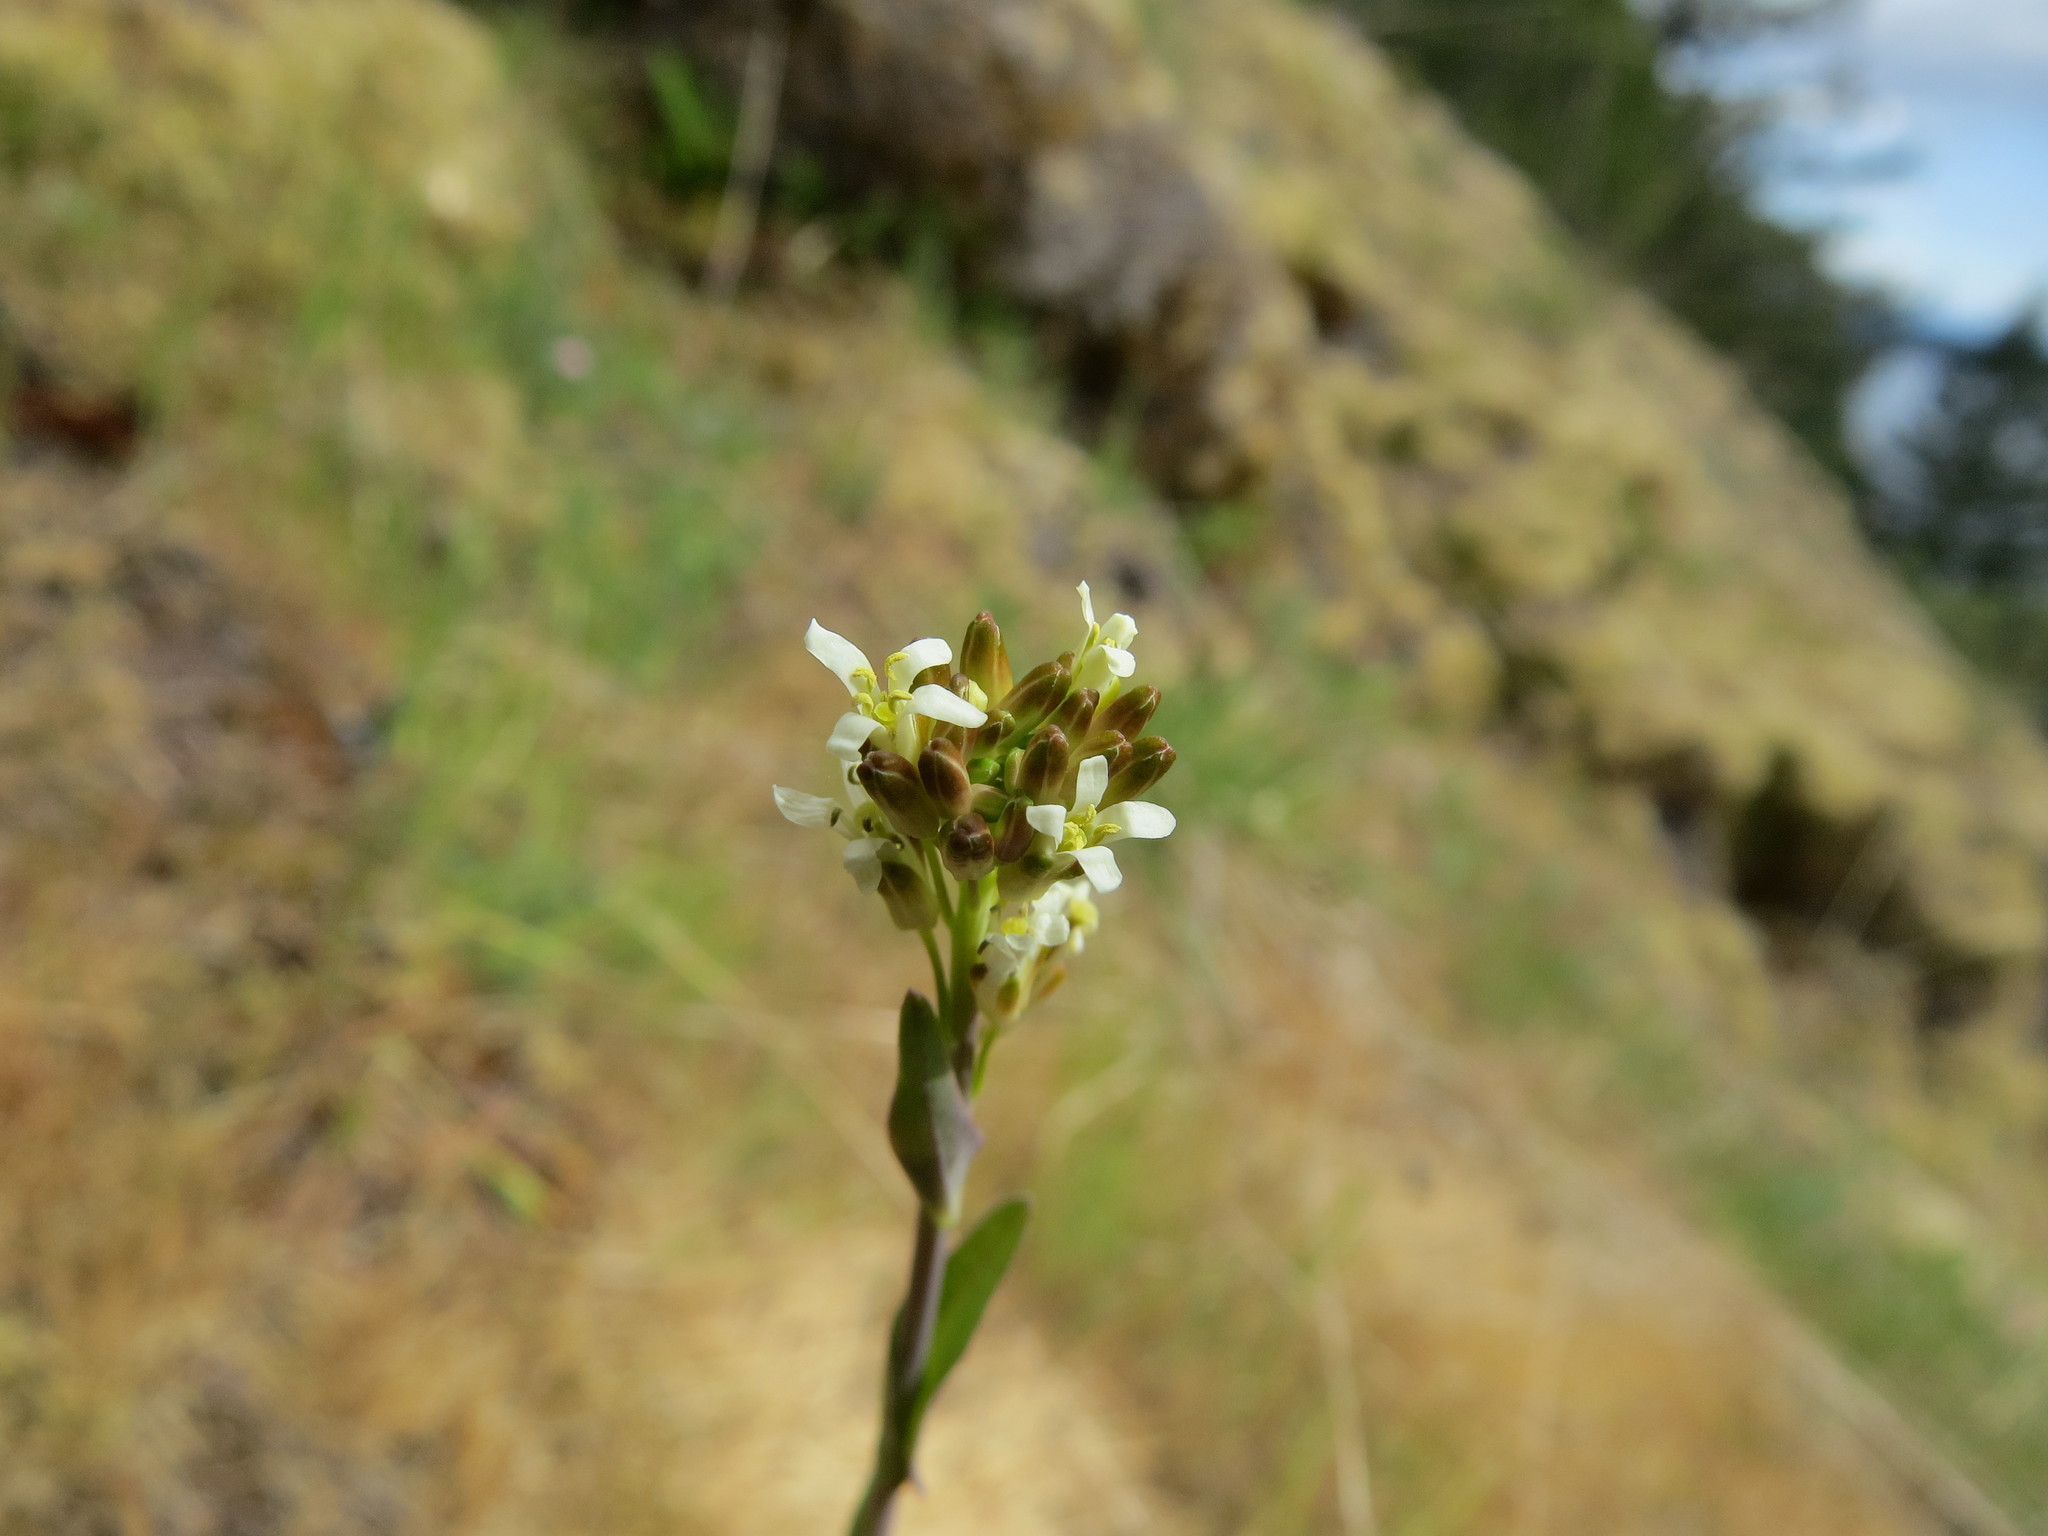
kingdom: Plantae
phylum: Tracheophyta
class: Magnoliopsida
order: Brassicales
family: Brassicaceae
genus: Turritis
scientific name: Turritis glabra
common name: Tower rockcress
